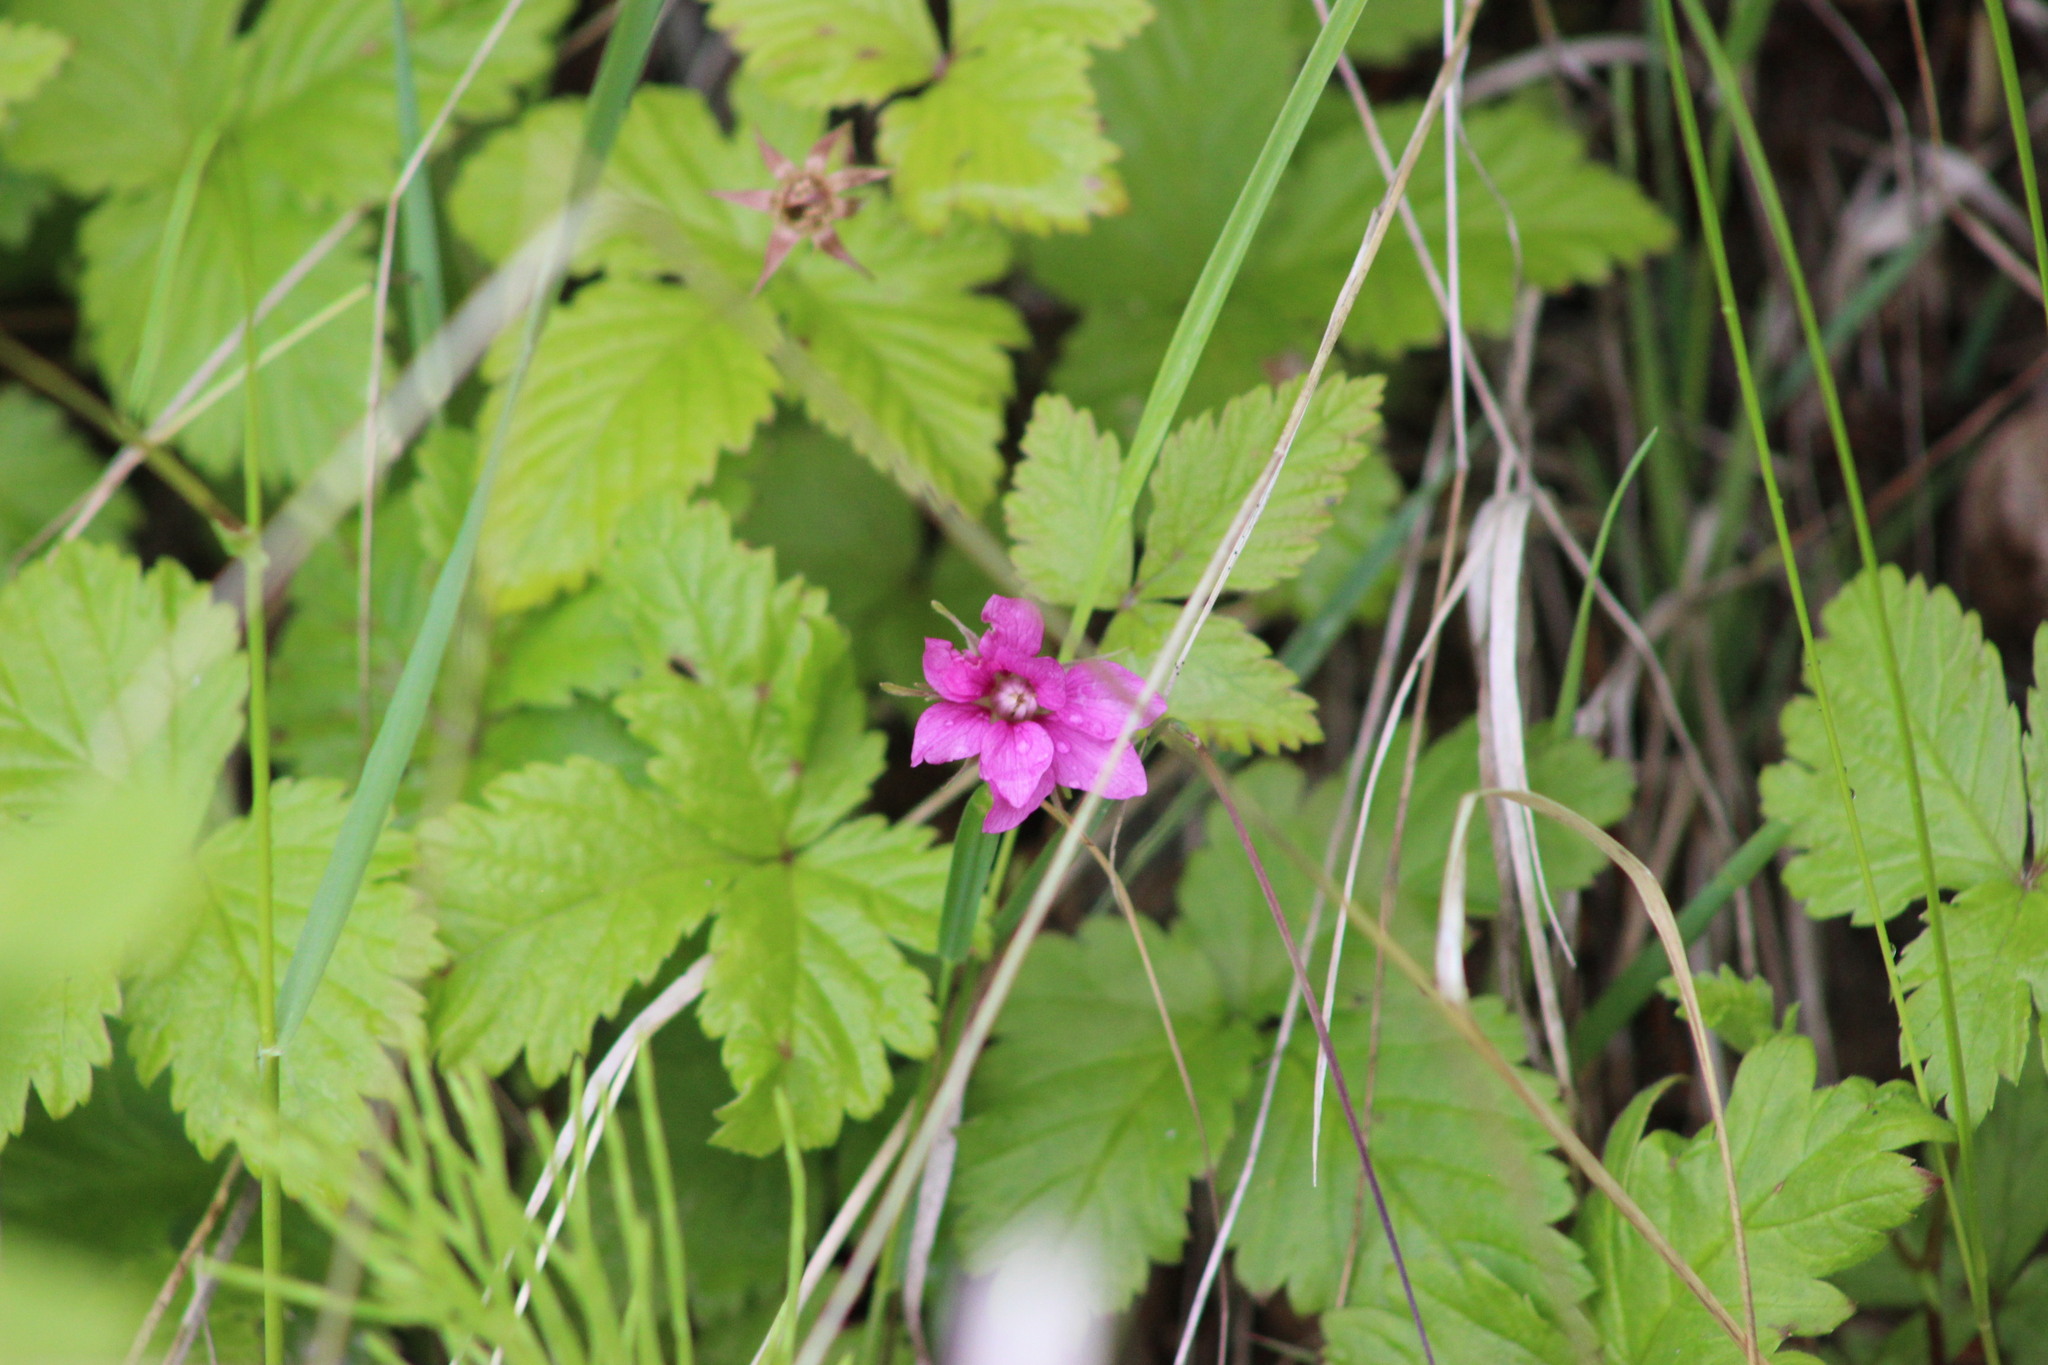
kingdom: Plantae
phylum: Tracheophyta
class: Magnoliopsida
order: Rosales
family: Rosaceae
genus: Rubus
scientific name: Rubus arcticus
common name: Arctic bramble
